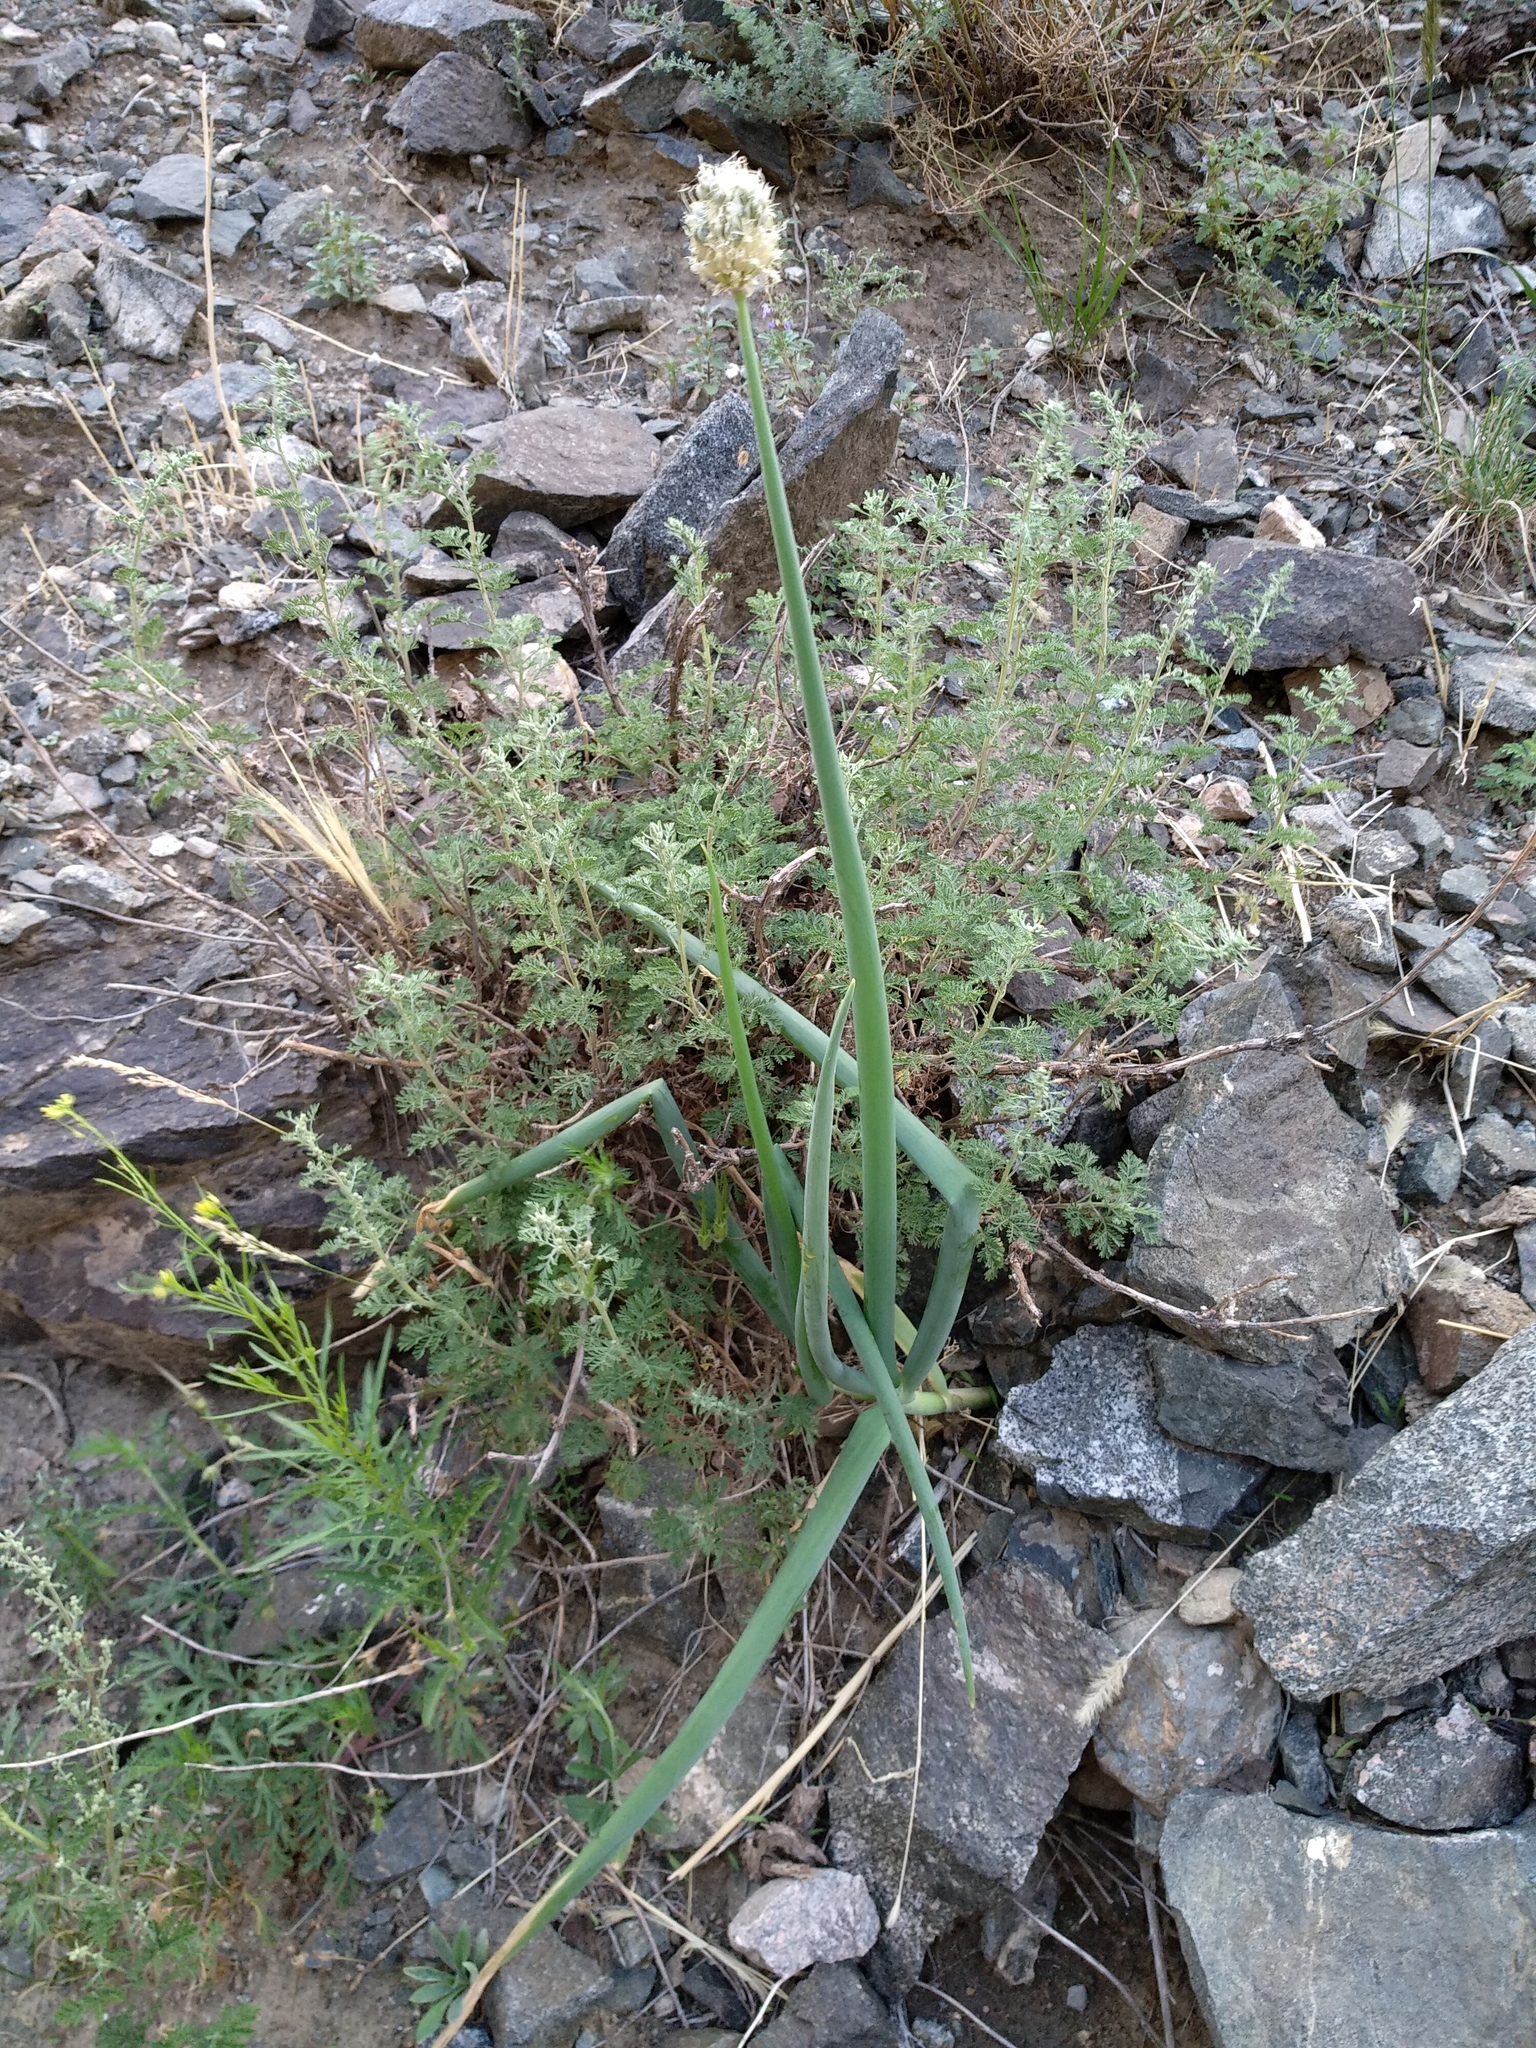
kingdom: Plantae
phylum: Tracheophyta
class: Liliopsida
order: Asparagales
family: Amaryllidaceae
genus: Allium
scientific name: Allium altaicum
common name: Altai onion
